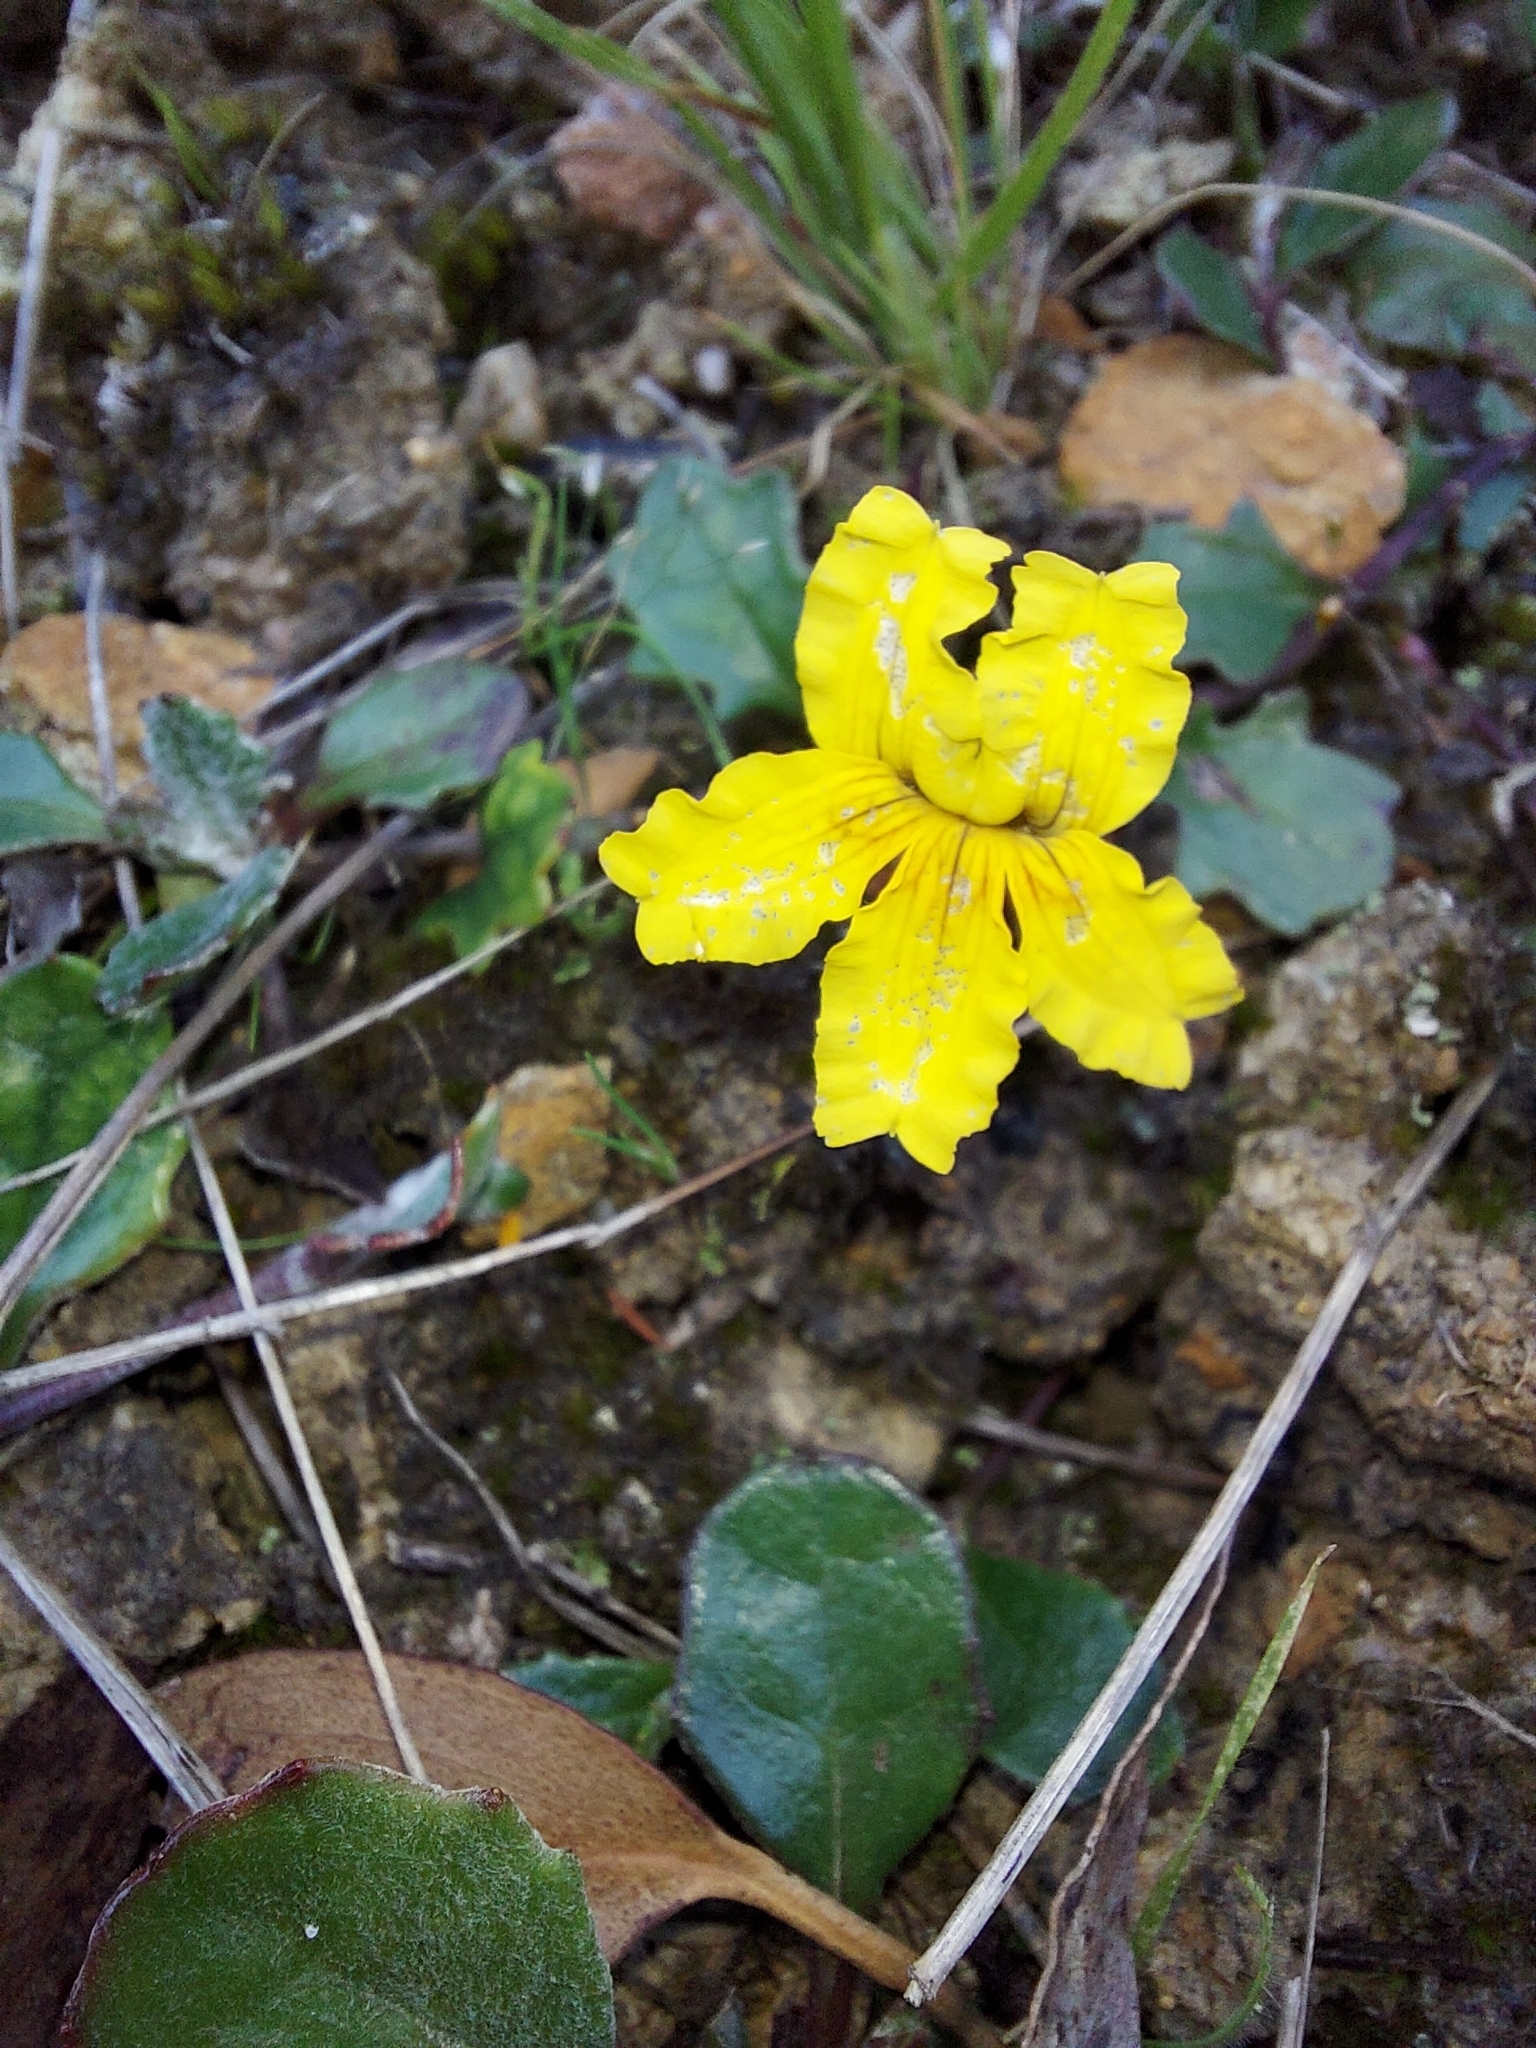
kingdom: Plantae
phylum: Tracheophyta
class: Magnoliopsida
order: Asterales
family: Goodeniaceae
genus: Goodenia
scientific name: Goodenia lanata
